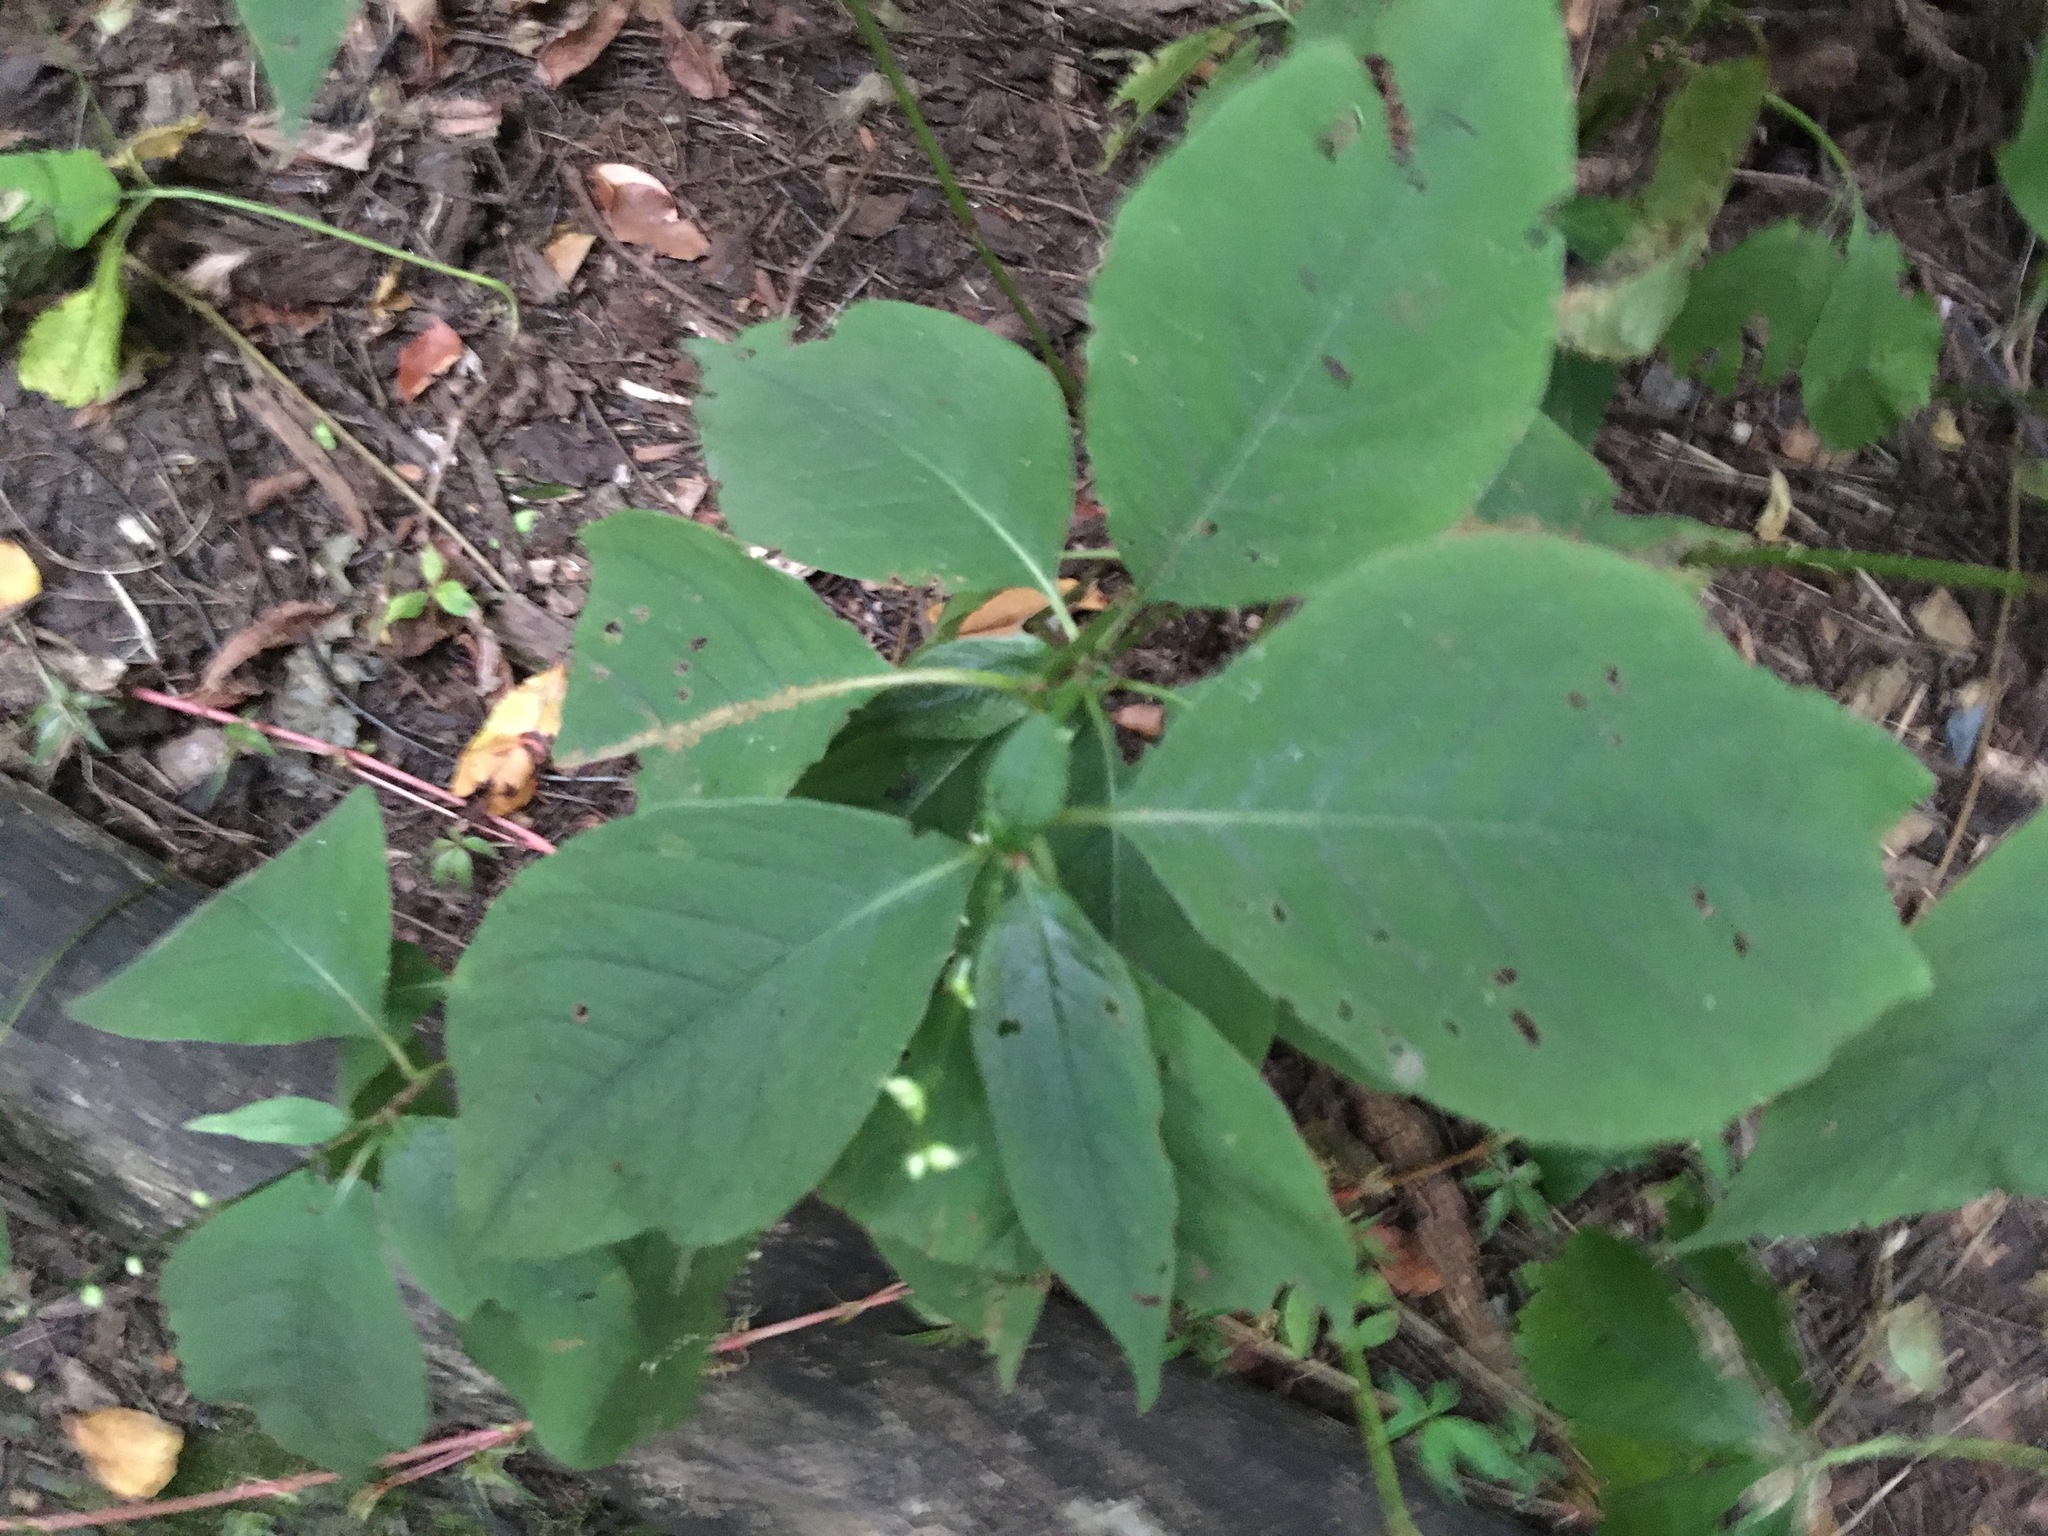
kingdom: Plantae
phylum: Tracheophyta
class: Magnoliopsida
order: Caryophyllales
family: Polygonaceae
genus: Persicaria
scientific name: Persicaria virginiana
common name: Jumpseed
